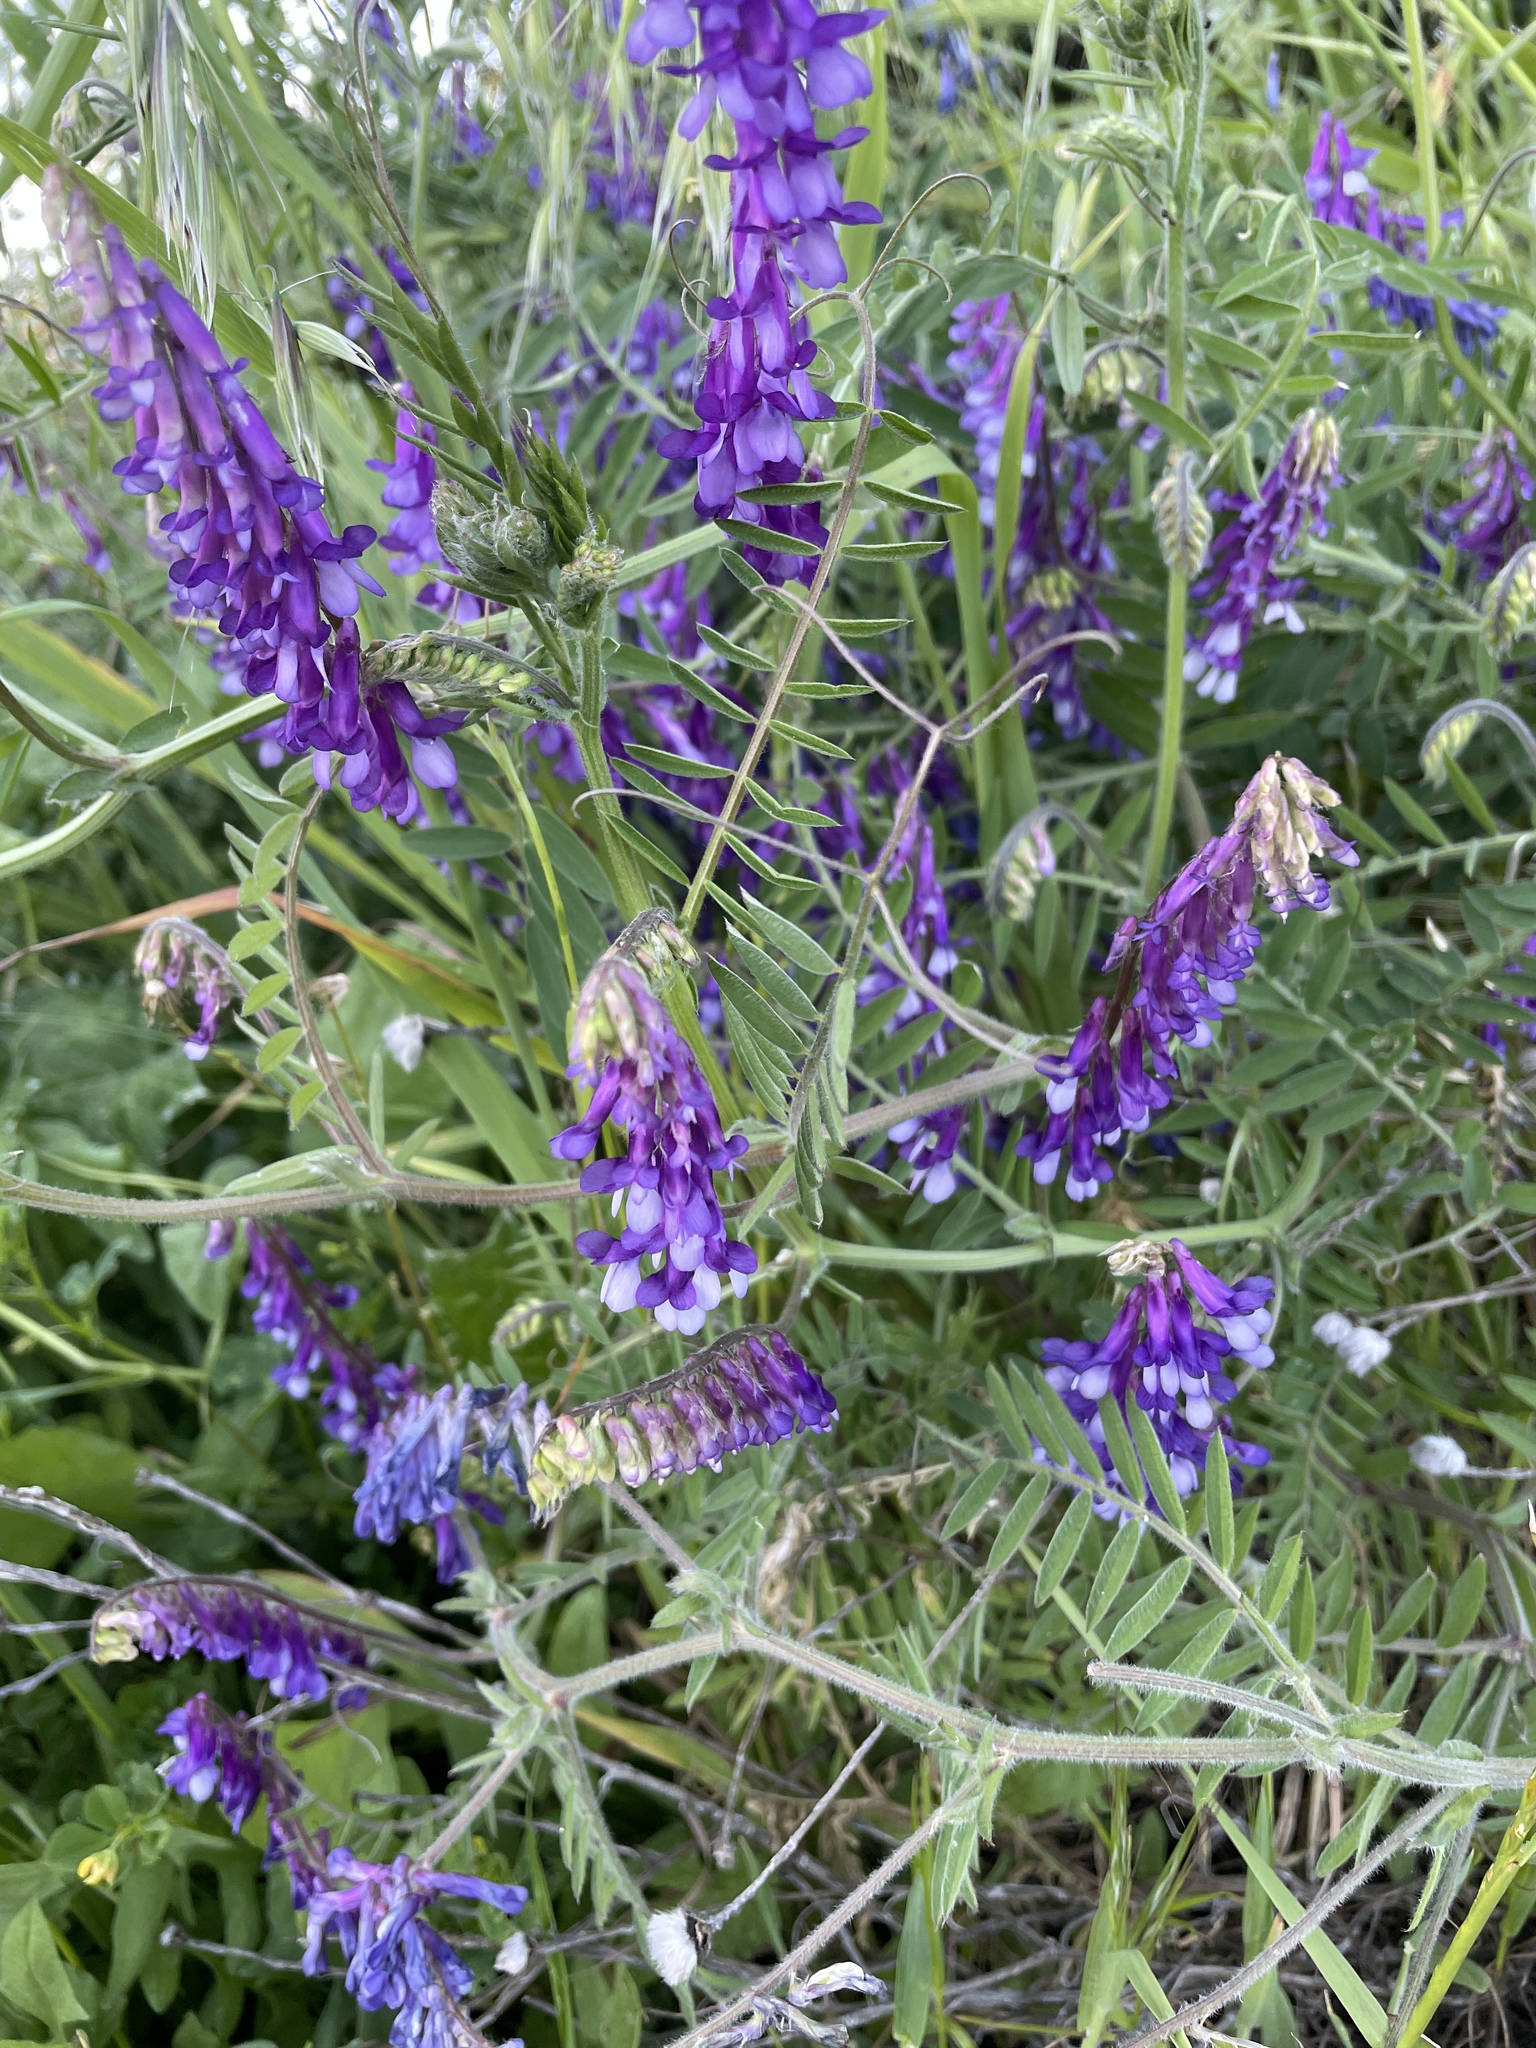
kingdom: Plantae
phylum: Tracheophyta
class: Magnoliopsida
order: Fabales
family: Fabaceae
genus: Vicia
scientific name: Vicia villosa
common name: Fodder vetch
